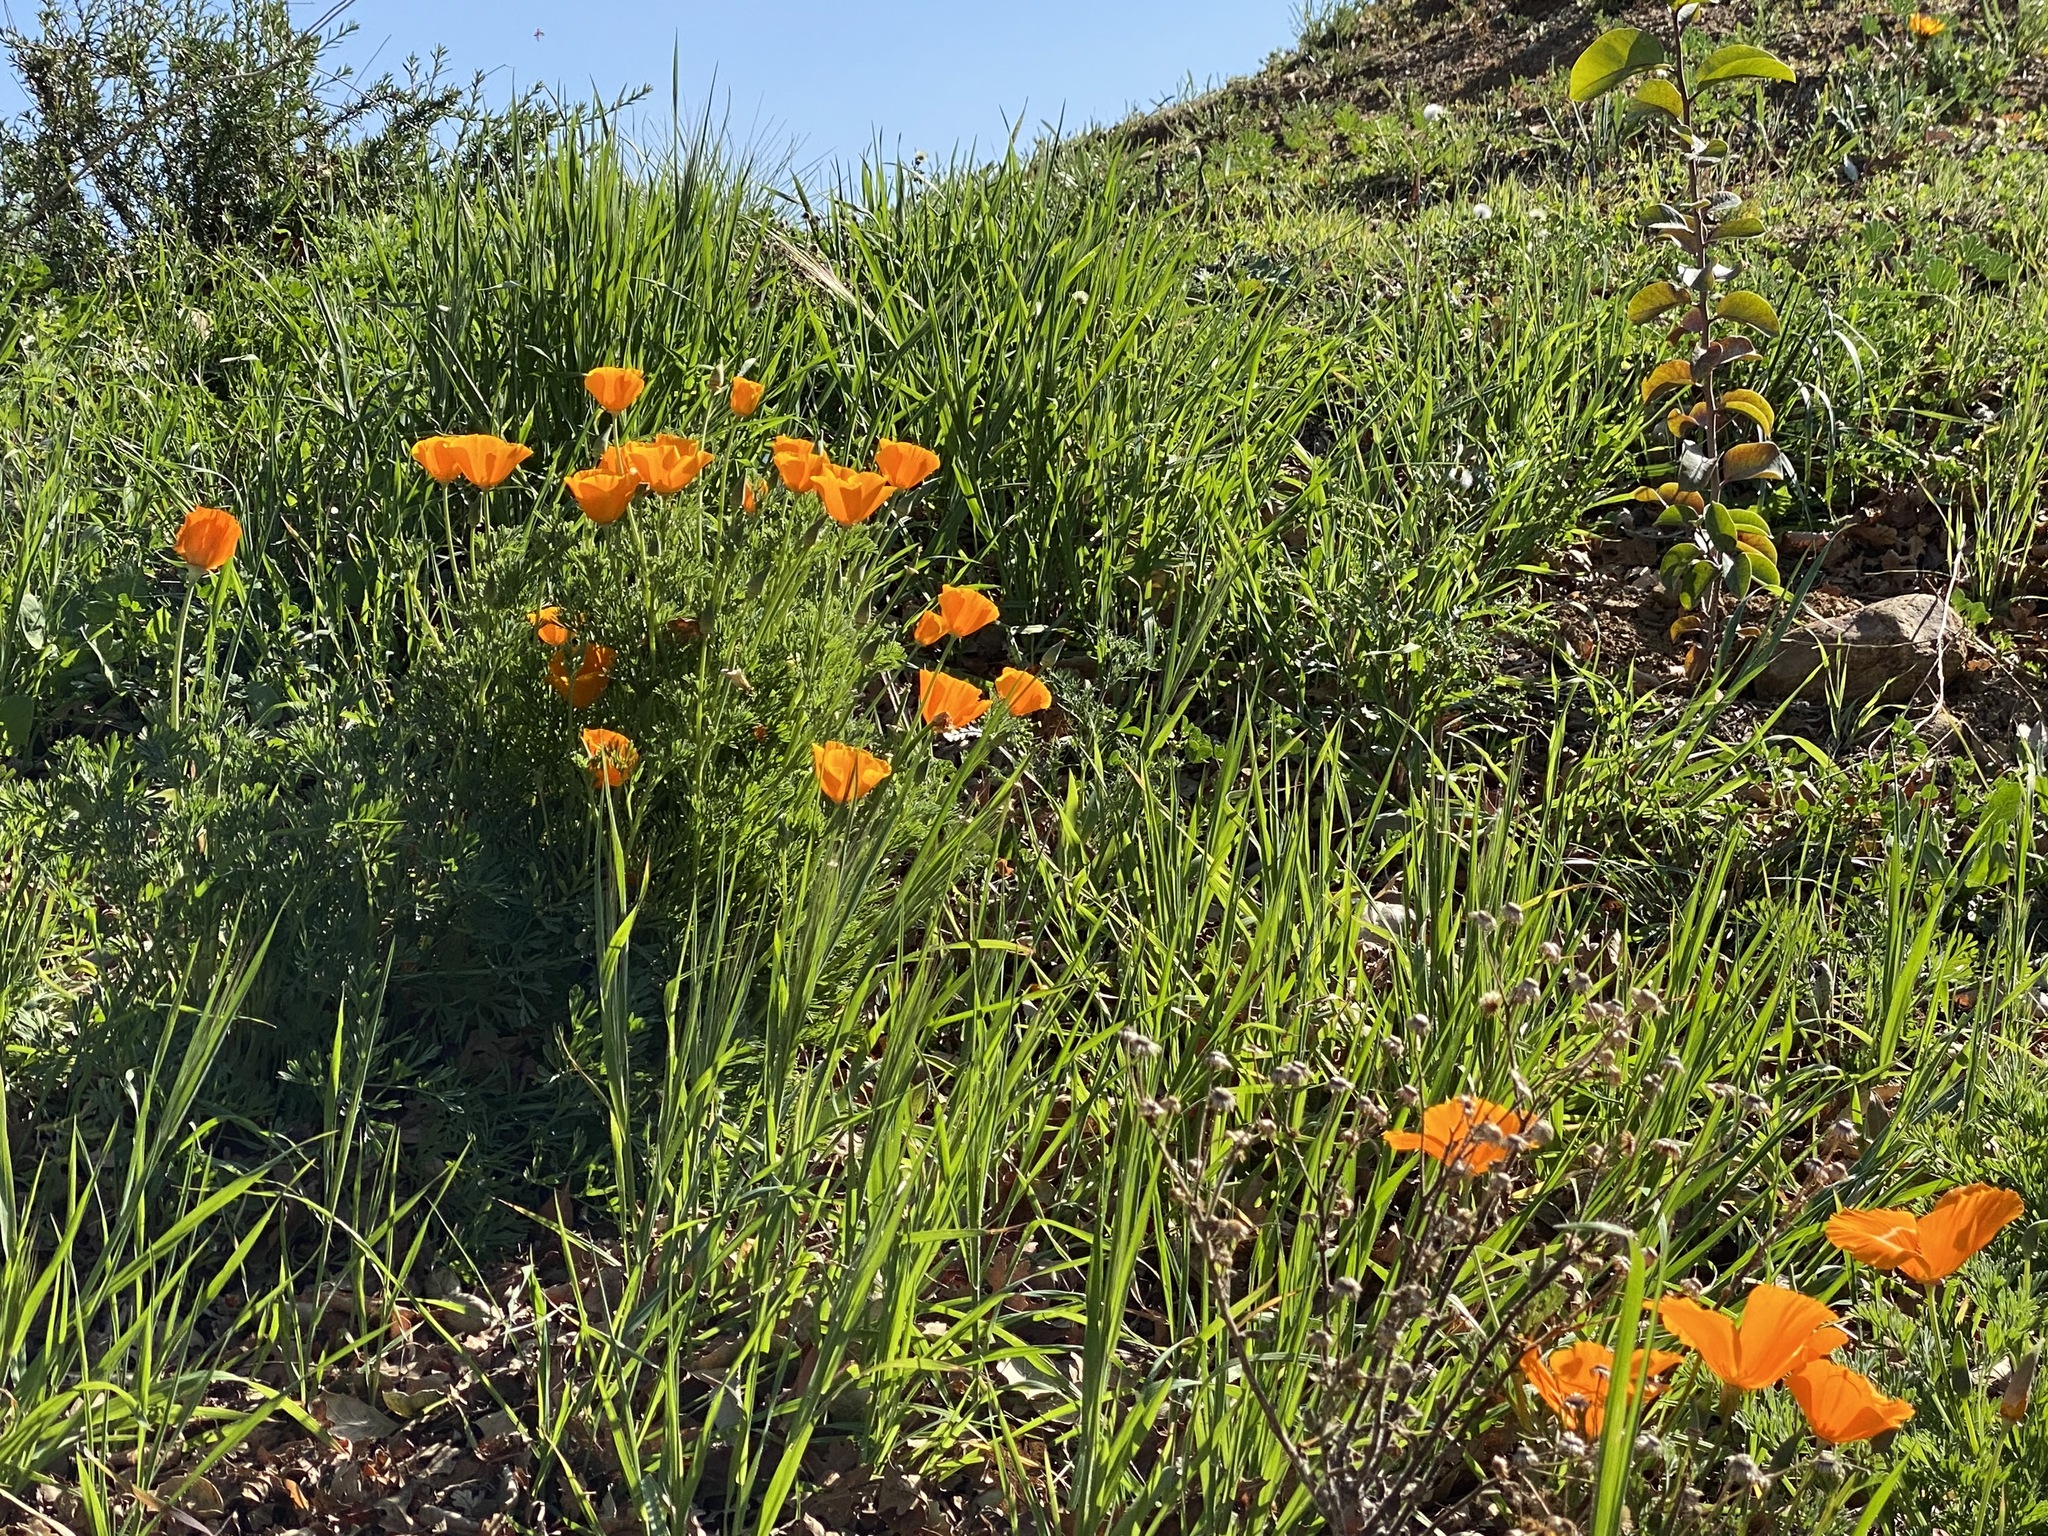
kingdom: Plantae
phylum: Tracheophyta
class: Magnoliopsida
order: Ranunculales
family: Papaveraceae
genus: Eschscholzia
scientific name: Eschscholzia californica
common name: California poppy
